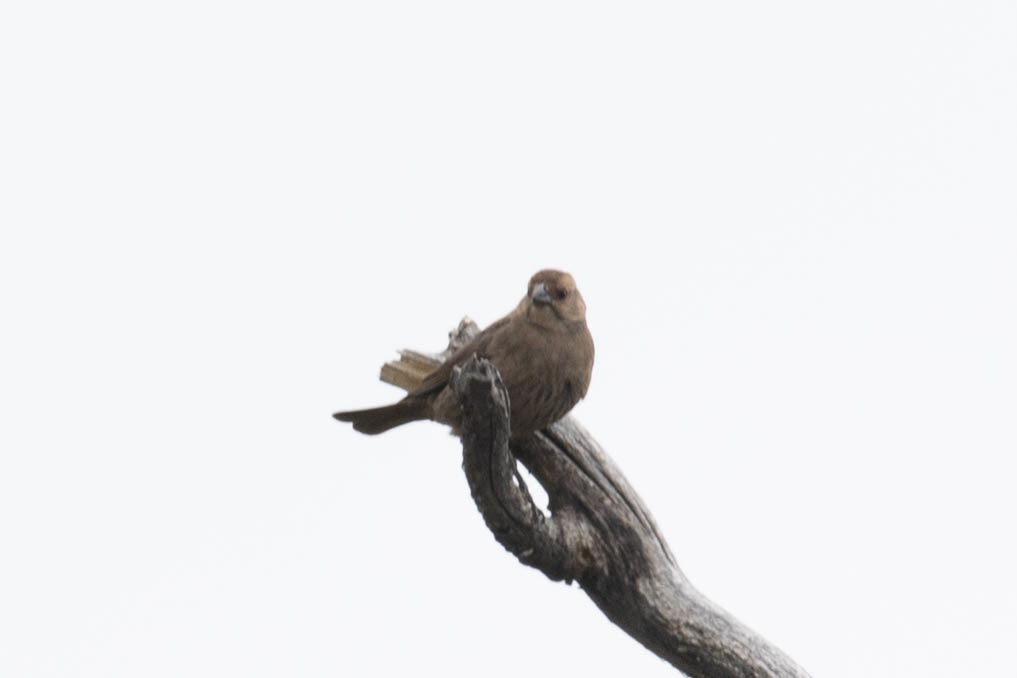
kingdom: Animalia
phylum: Chordata
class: Aves
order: Passeriformes
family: Icteridae
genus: Molothrus
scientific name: Molothrus ater
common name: Brown-headed cowbird
